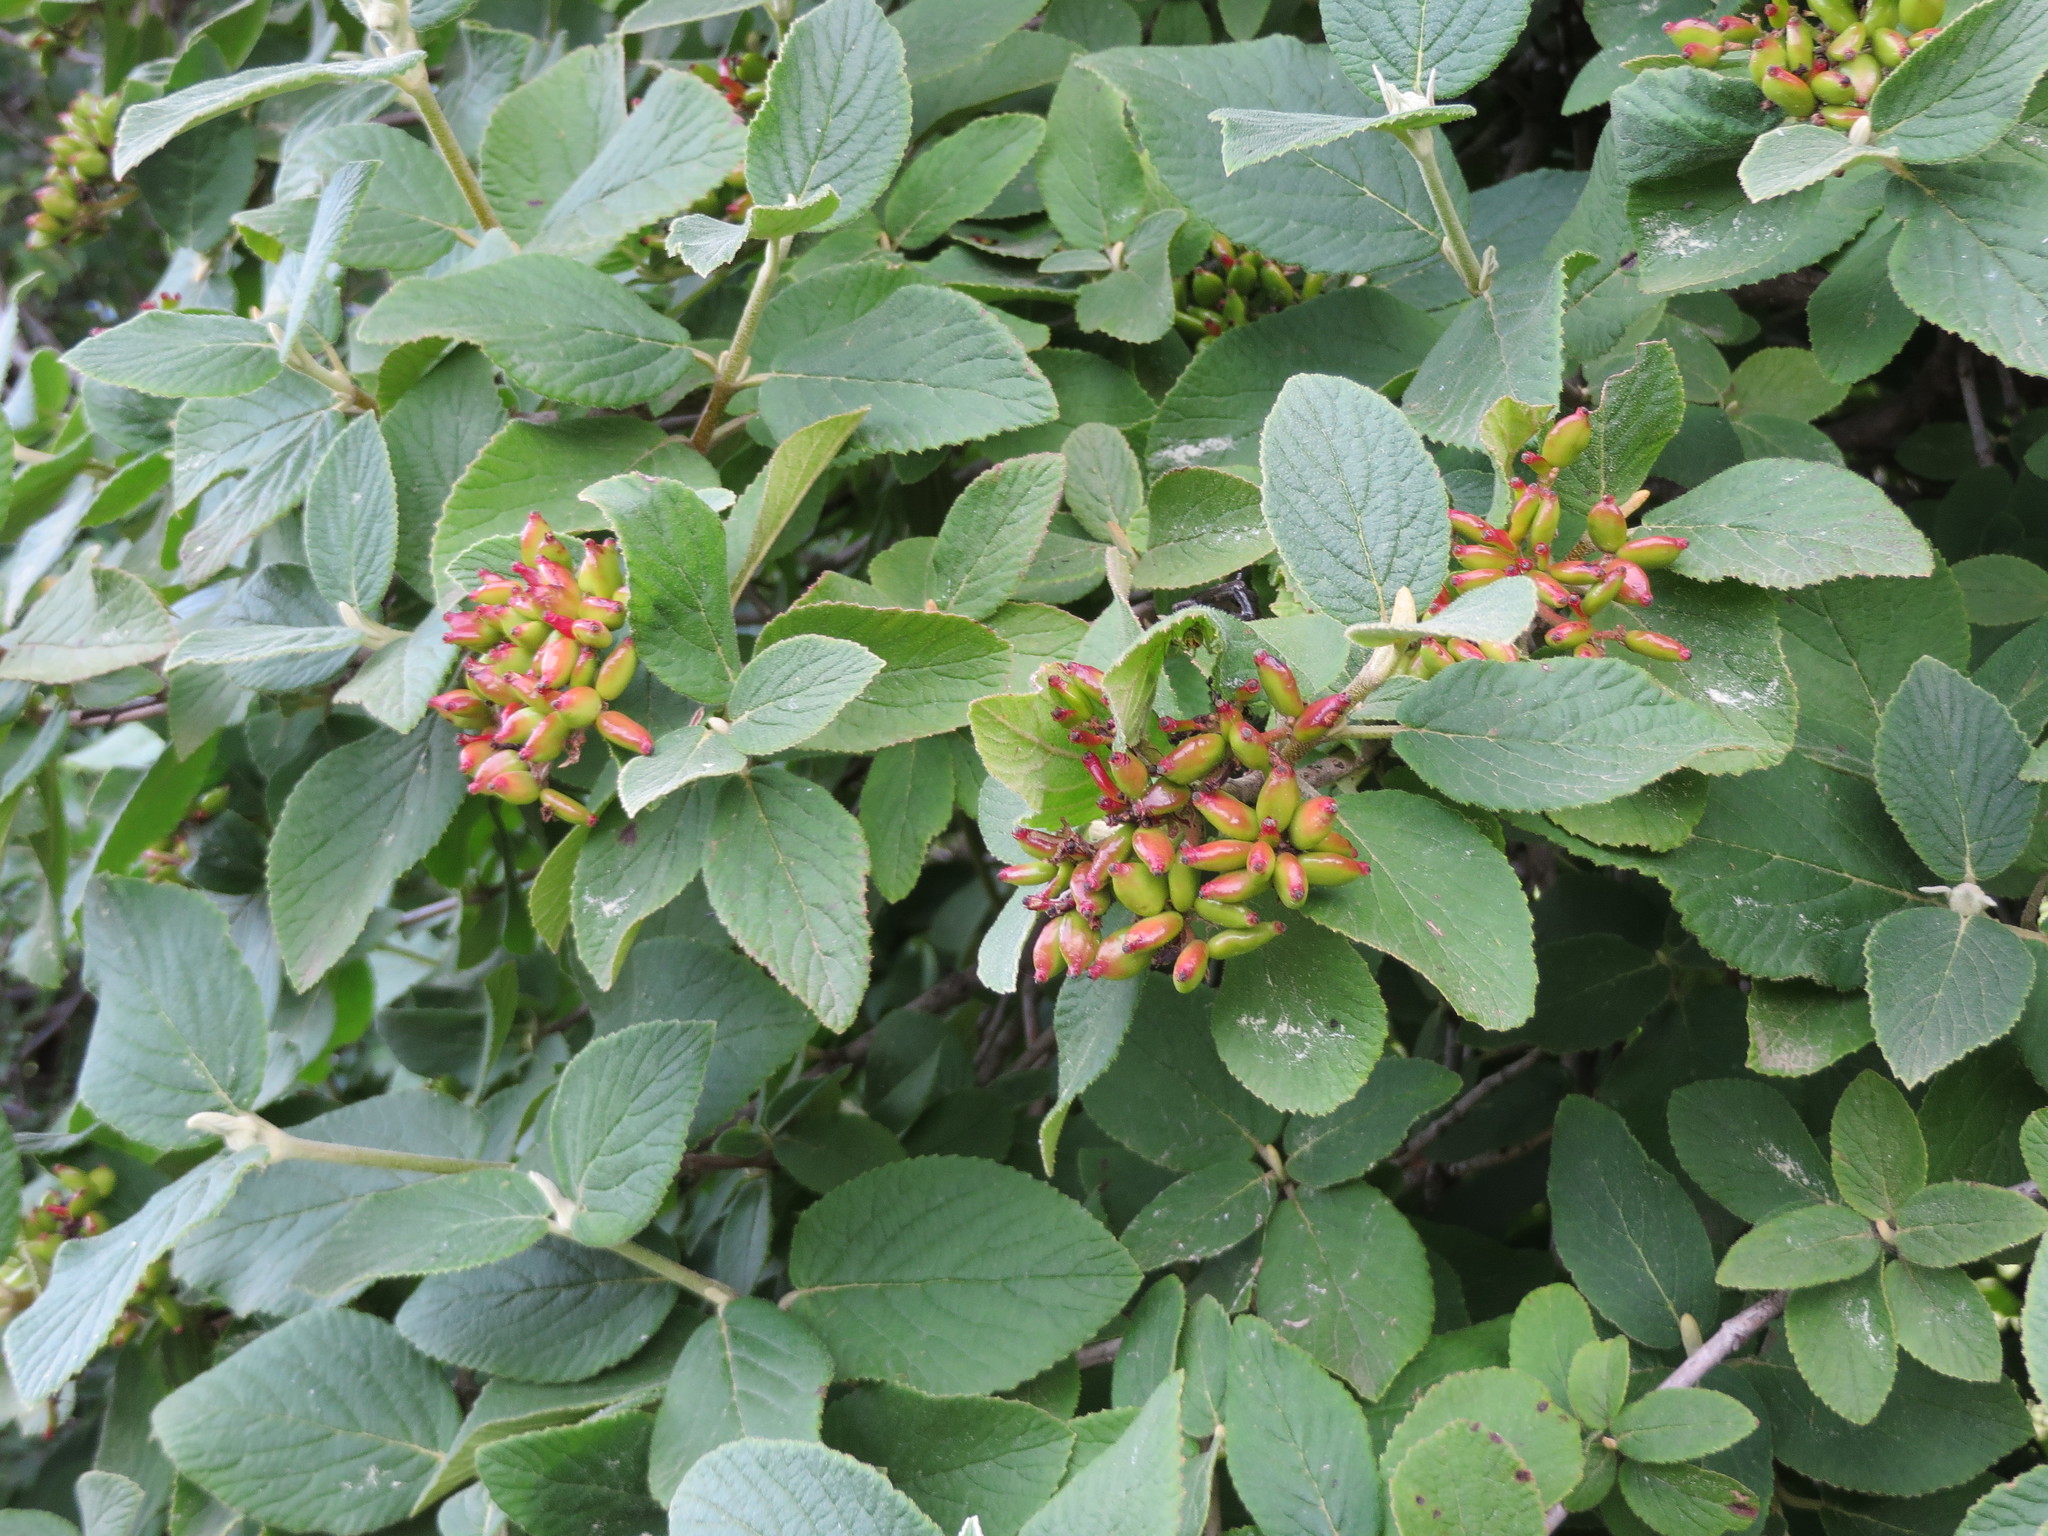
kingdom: Plantae
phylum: Tracheophyta
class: Magnoliopsida
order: Dipsacales
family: Viburnaceae
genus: Viburnum
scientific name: Viburnum lantana
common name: Wayfaring tree
